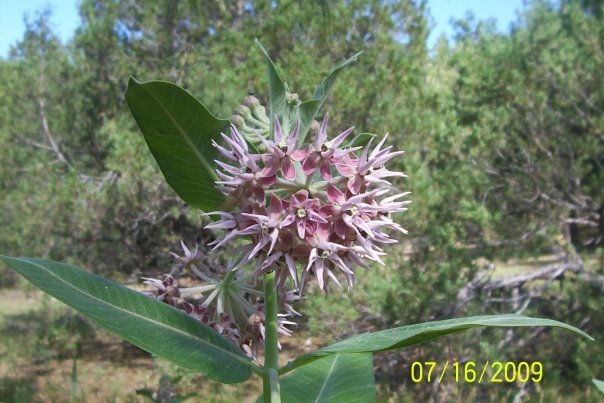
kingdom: Plantae
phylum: Tracheophyta
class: Magnoliopsida
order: Gentianales
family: Apocynaceae
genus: Asclepias
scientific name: Asclepias speciosa
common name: Showy milkweed
